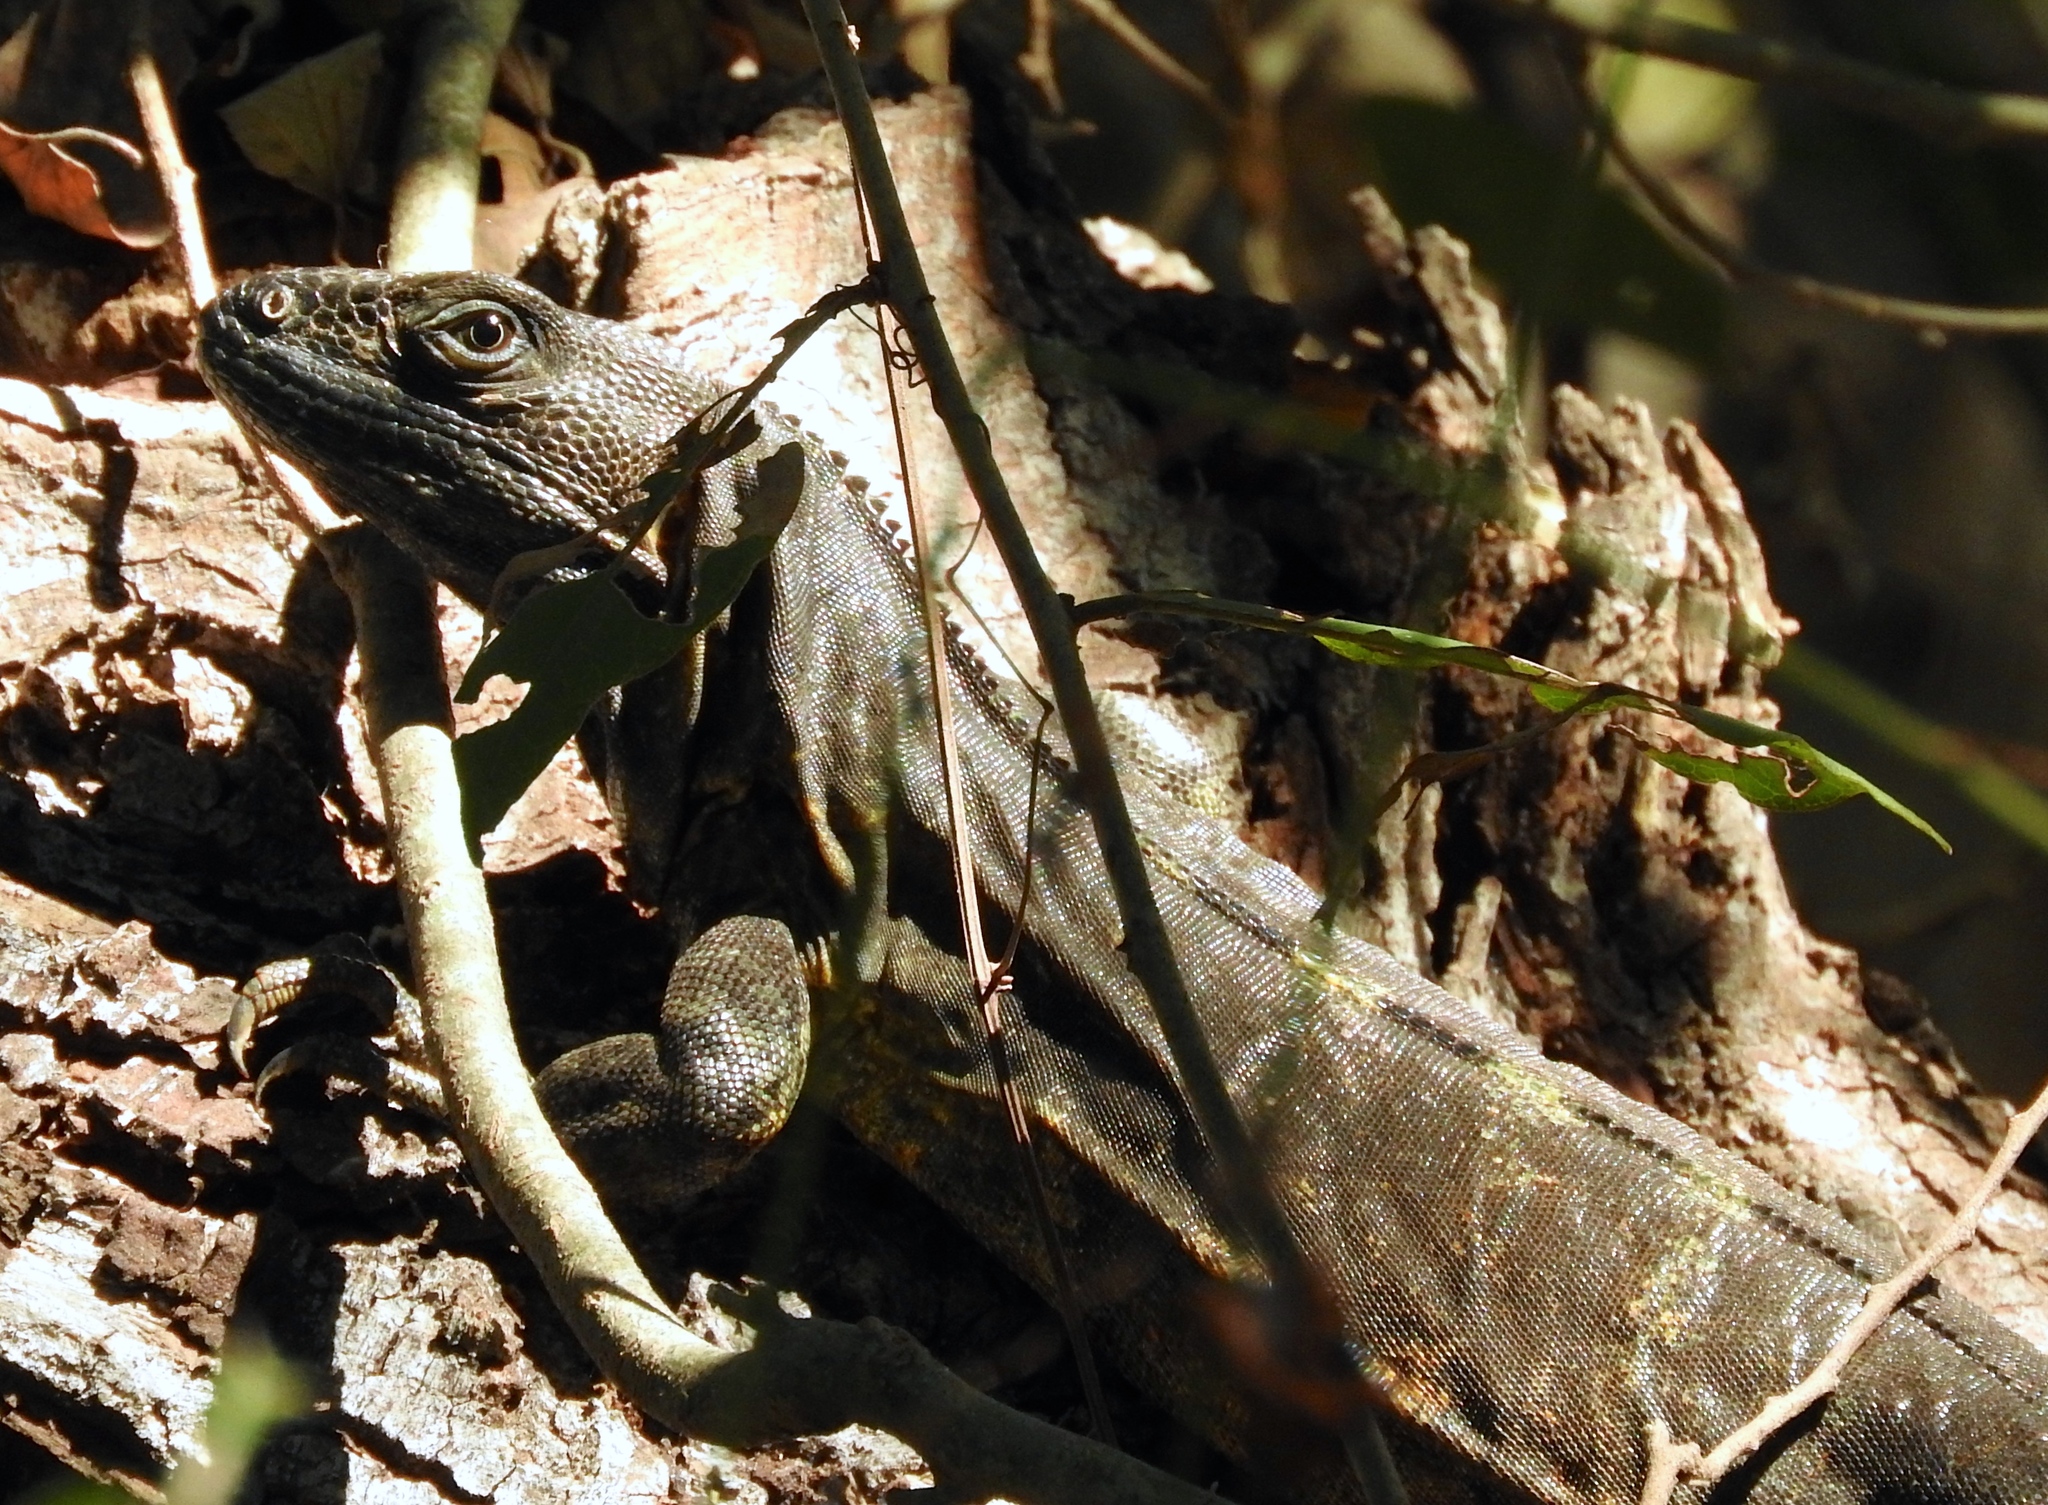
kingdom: Animalia
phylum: Chordata
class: Squamata
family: Iguanidae
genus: Ctenosaura
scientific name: Ctenosaura pectinata
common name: Guerreran spiny-tailed iguana
